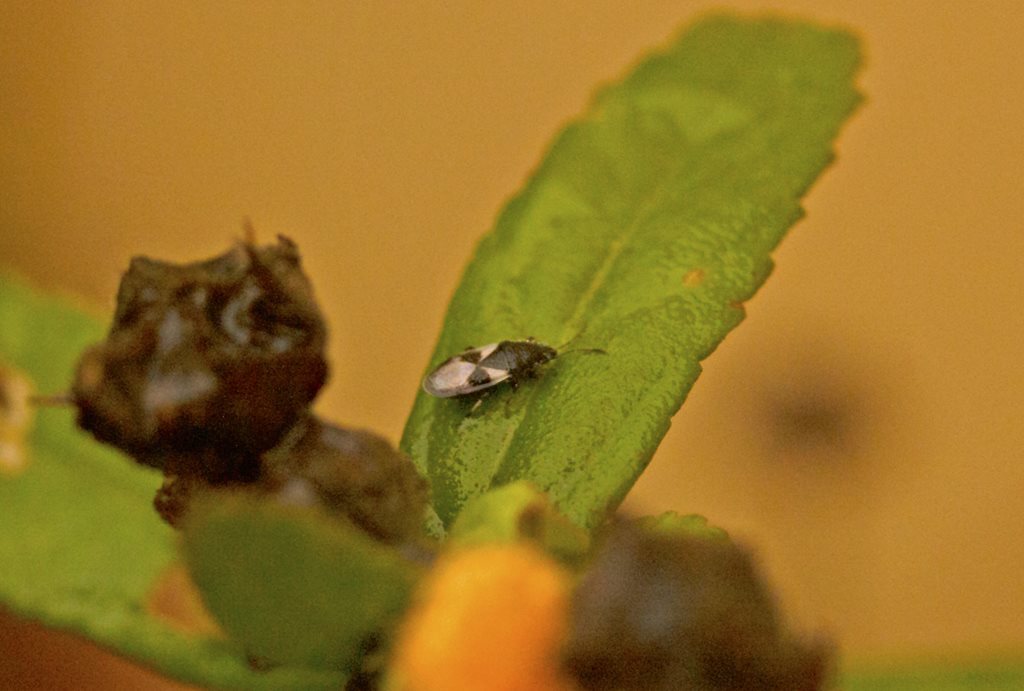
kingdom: Animalia
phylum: Arthropoda
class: Insecta
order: Hemiptera
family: Oxycarenidae
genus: Oxycarenus
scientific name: Oxycarenus luctuosus
